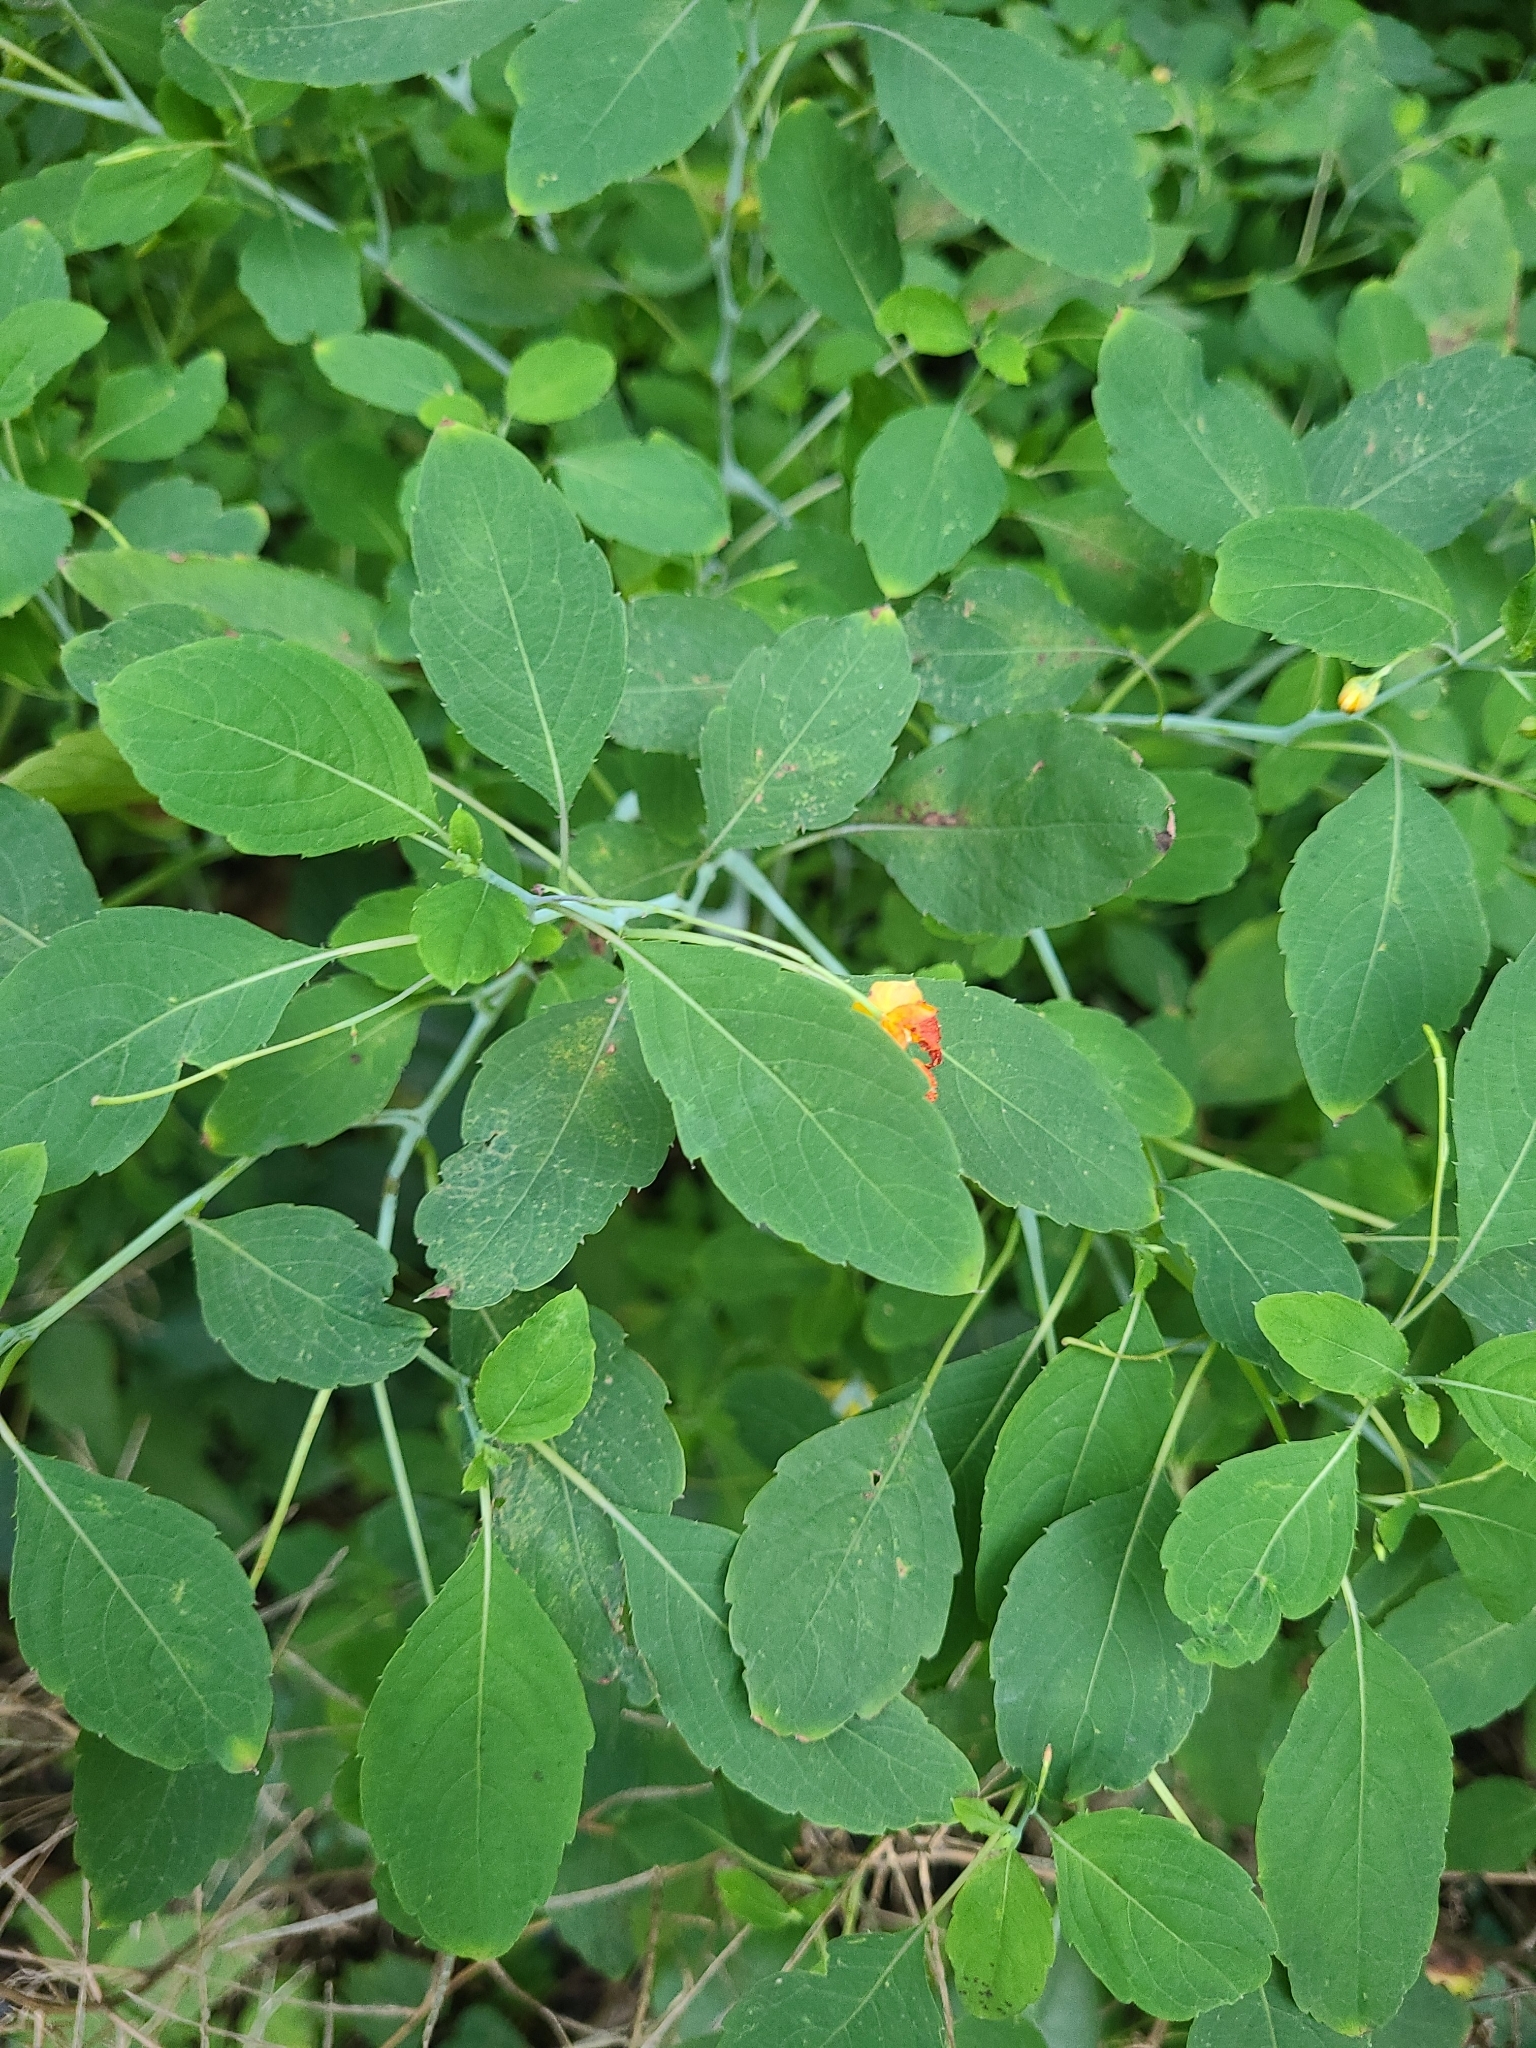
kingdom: Plantae
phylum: Tracheophyta
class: Magnoliopsida
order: Ericales
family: Balsaminaceae
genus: Impatiens
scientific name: Impatiens capensis
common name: Orange balsam
